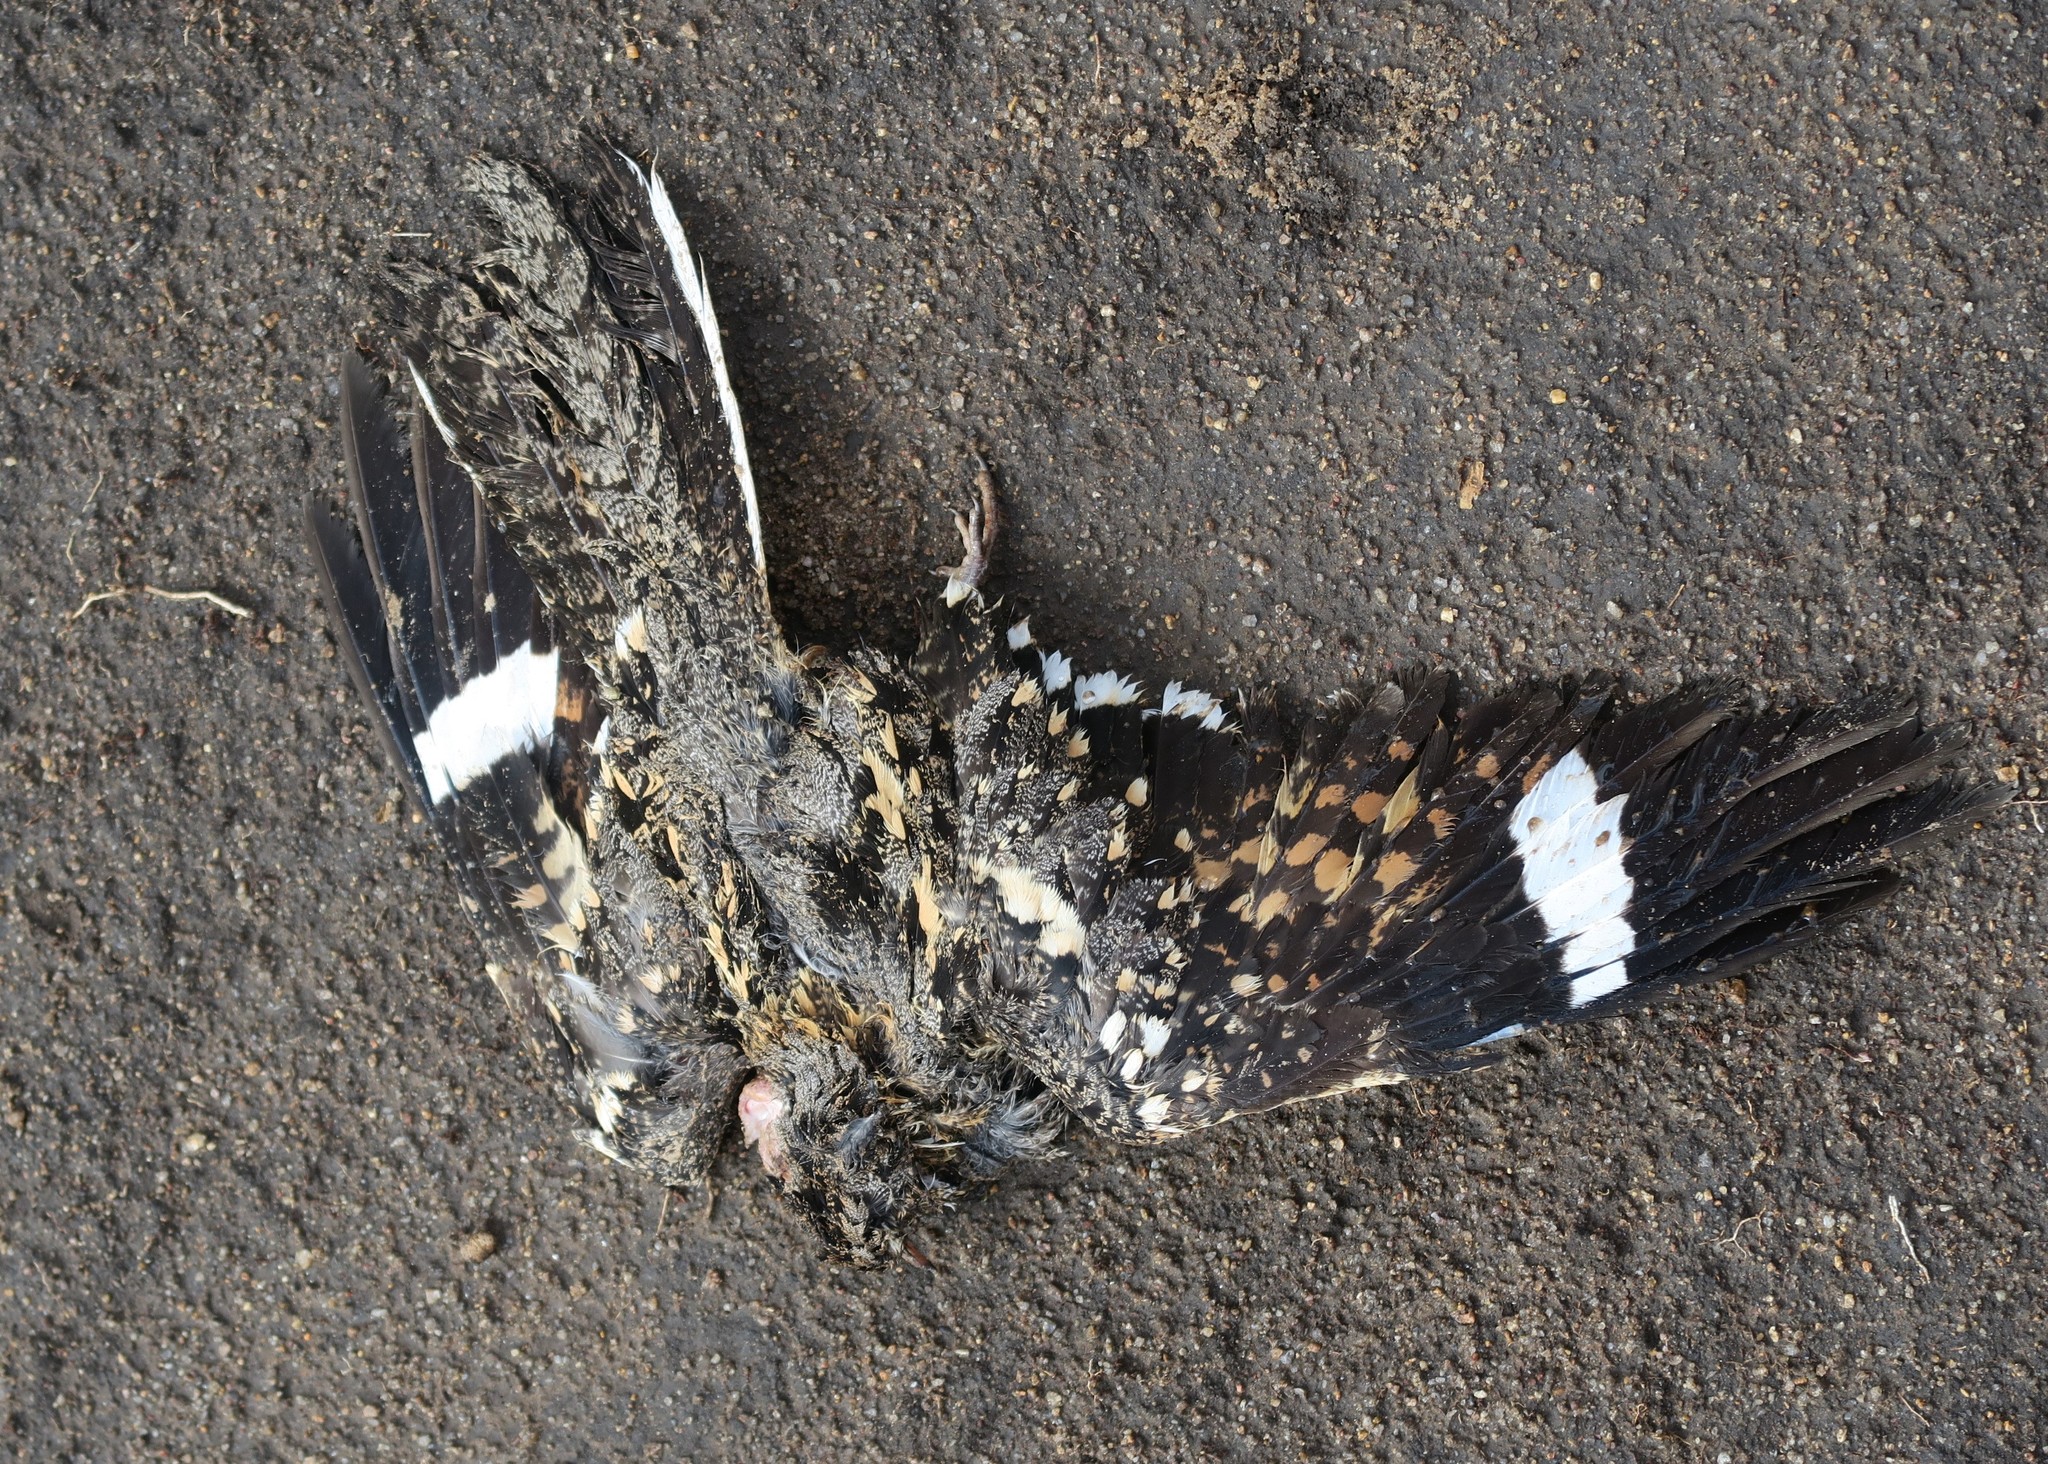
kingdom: Animalia
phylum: Chordata
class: Aves
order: Caprimulgiformes
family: Caprimulgidae
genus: Caprimulgus
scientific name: Caprimulgus fossii
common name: Square-tailed nightjar
